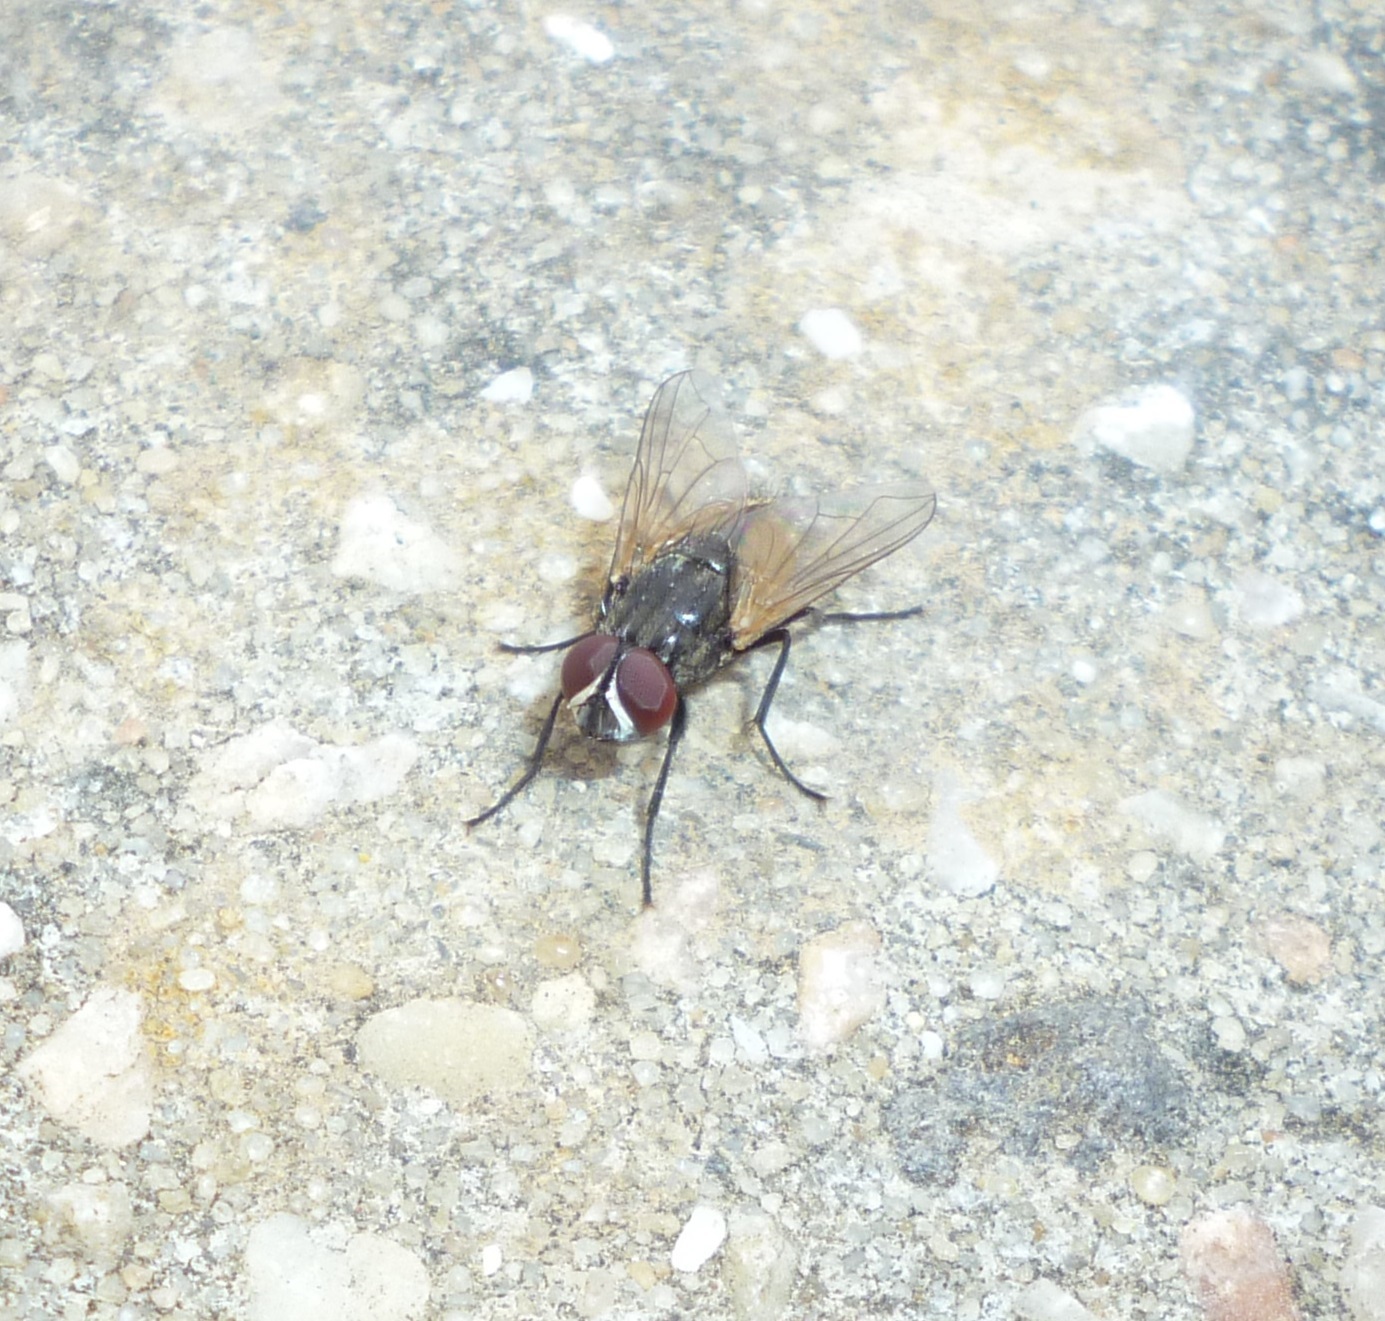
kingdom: Animalia
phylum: Arthropoda
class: Insecta
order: Diptera
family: Muscidae
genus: Musca
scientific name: Musca domestica
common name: House fly
